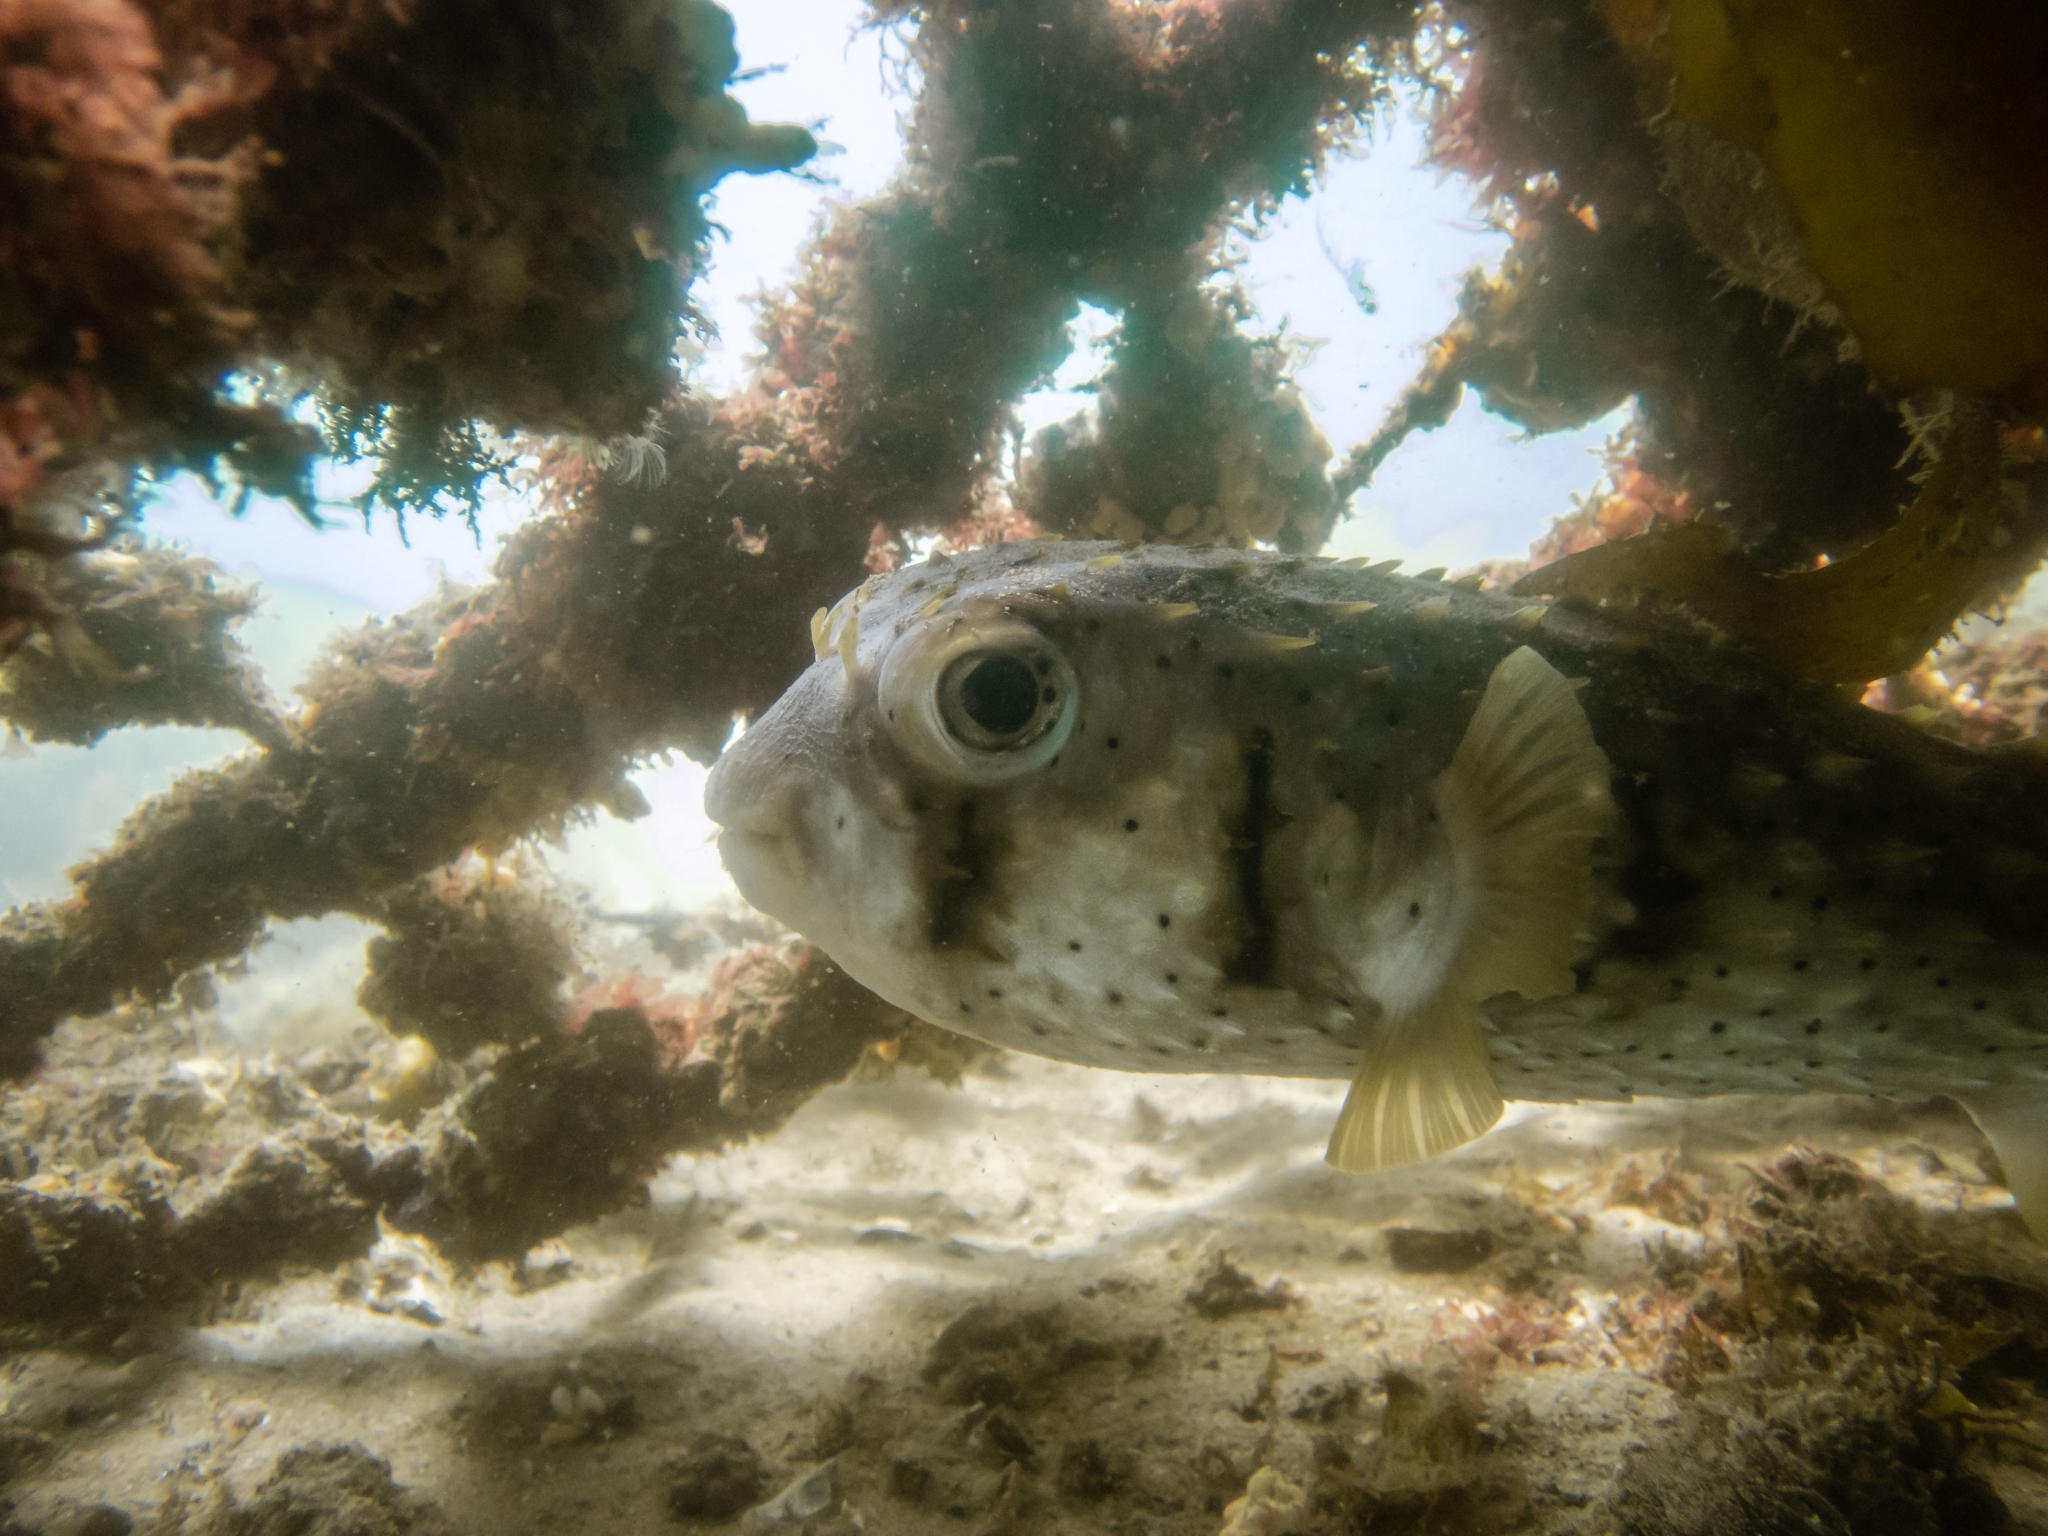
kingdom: Animalia
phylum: Chordata
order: Tetraodontiformes
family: Diodontidae
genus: Dicotylichthys
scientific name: Dicotylichthys punctulatus
